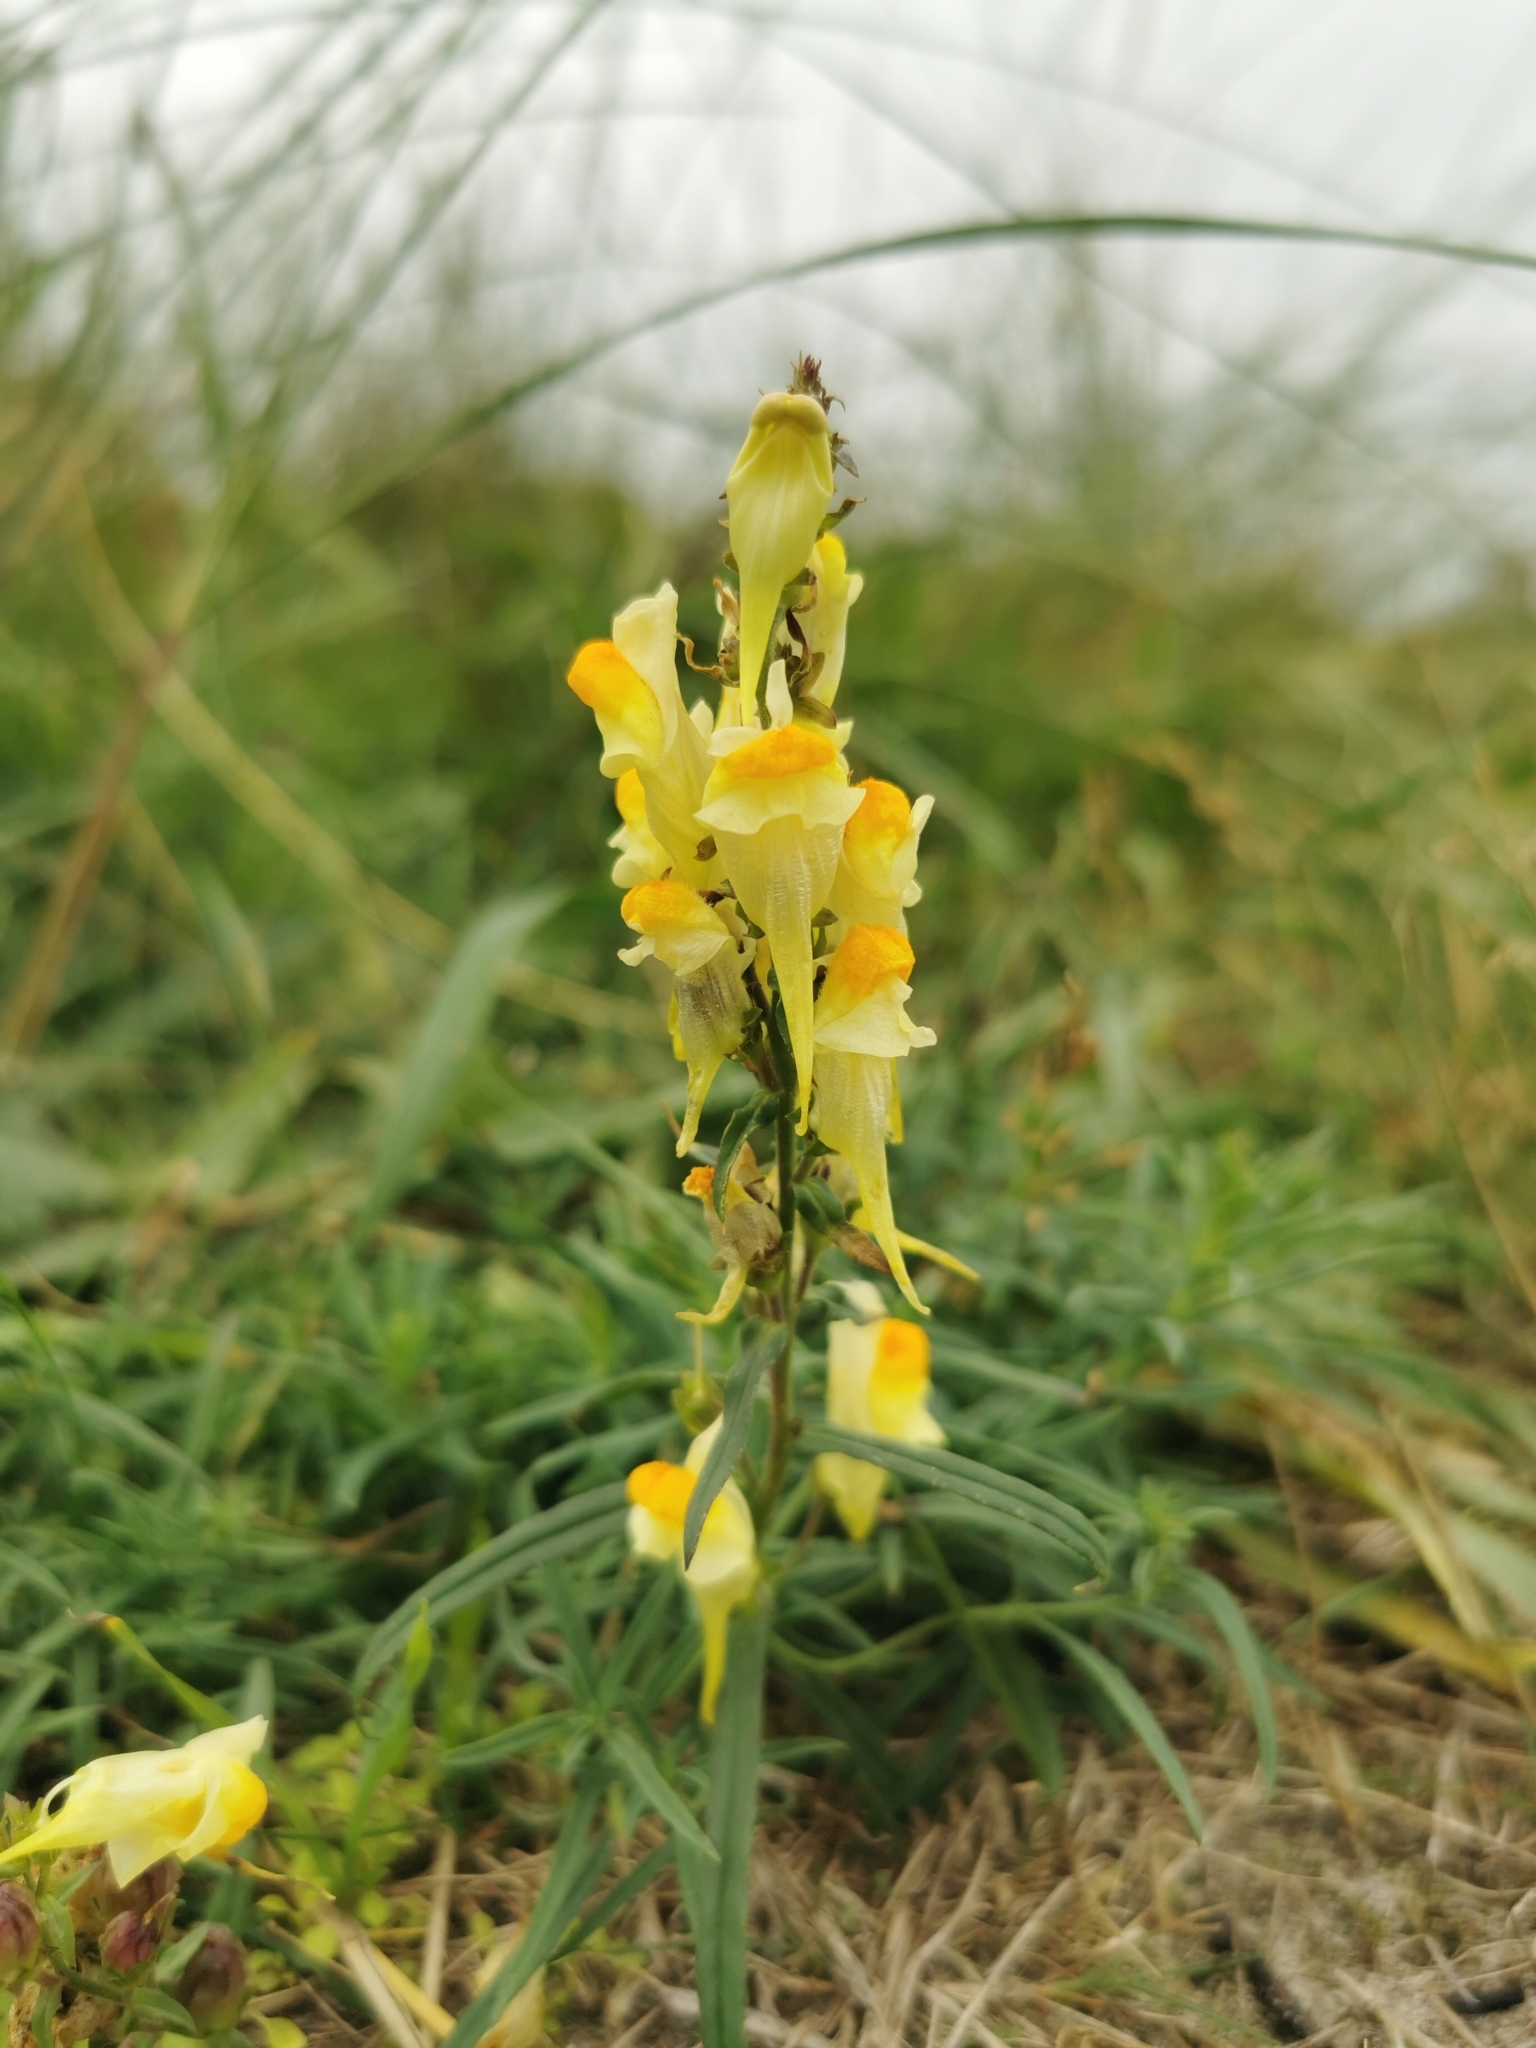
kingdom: Plantae
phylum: Tracheophyta
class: Magnoliopsida
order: Lamiales
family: Plantaginaceae
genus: Linaria
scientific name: Linaria vulgaris
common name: Butter and eggs
